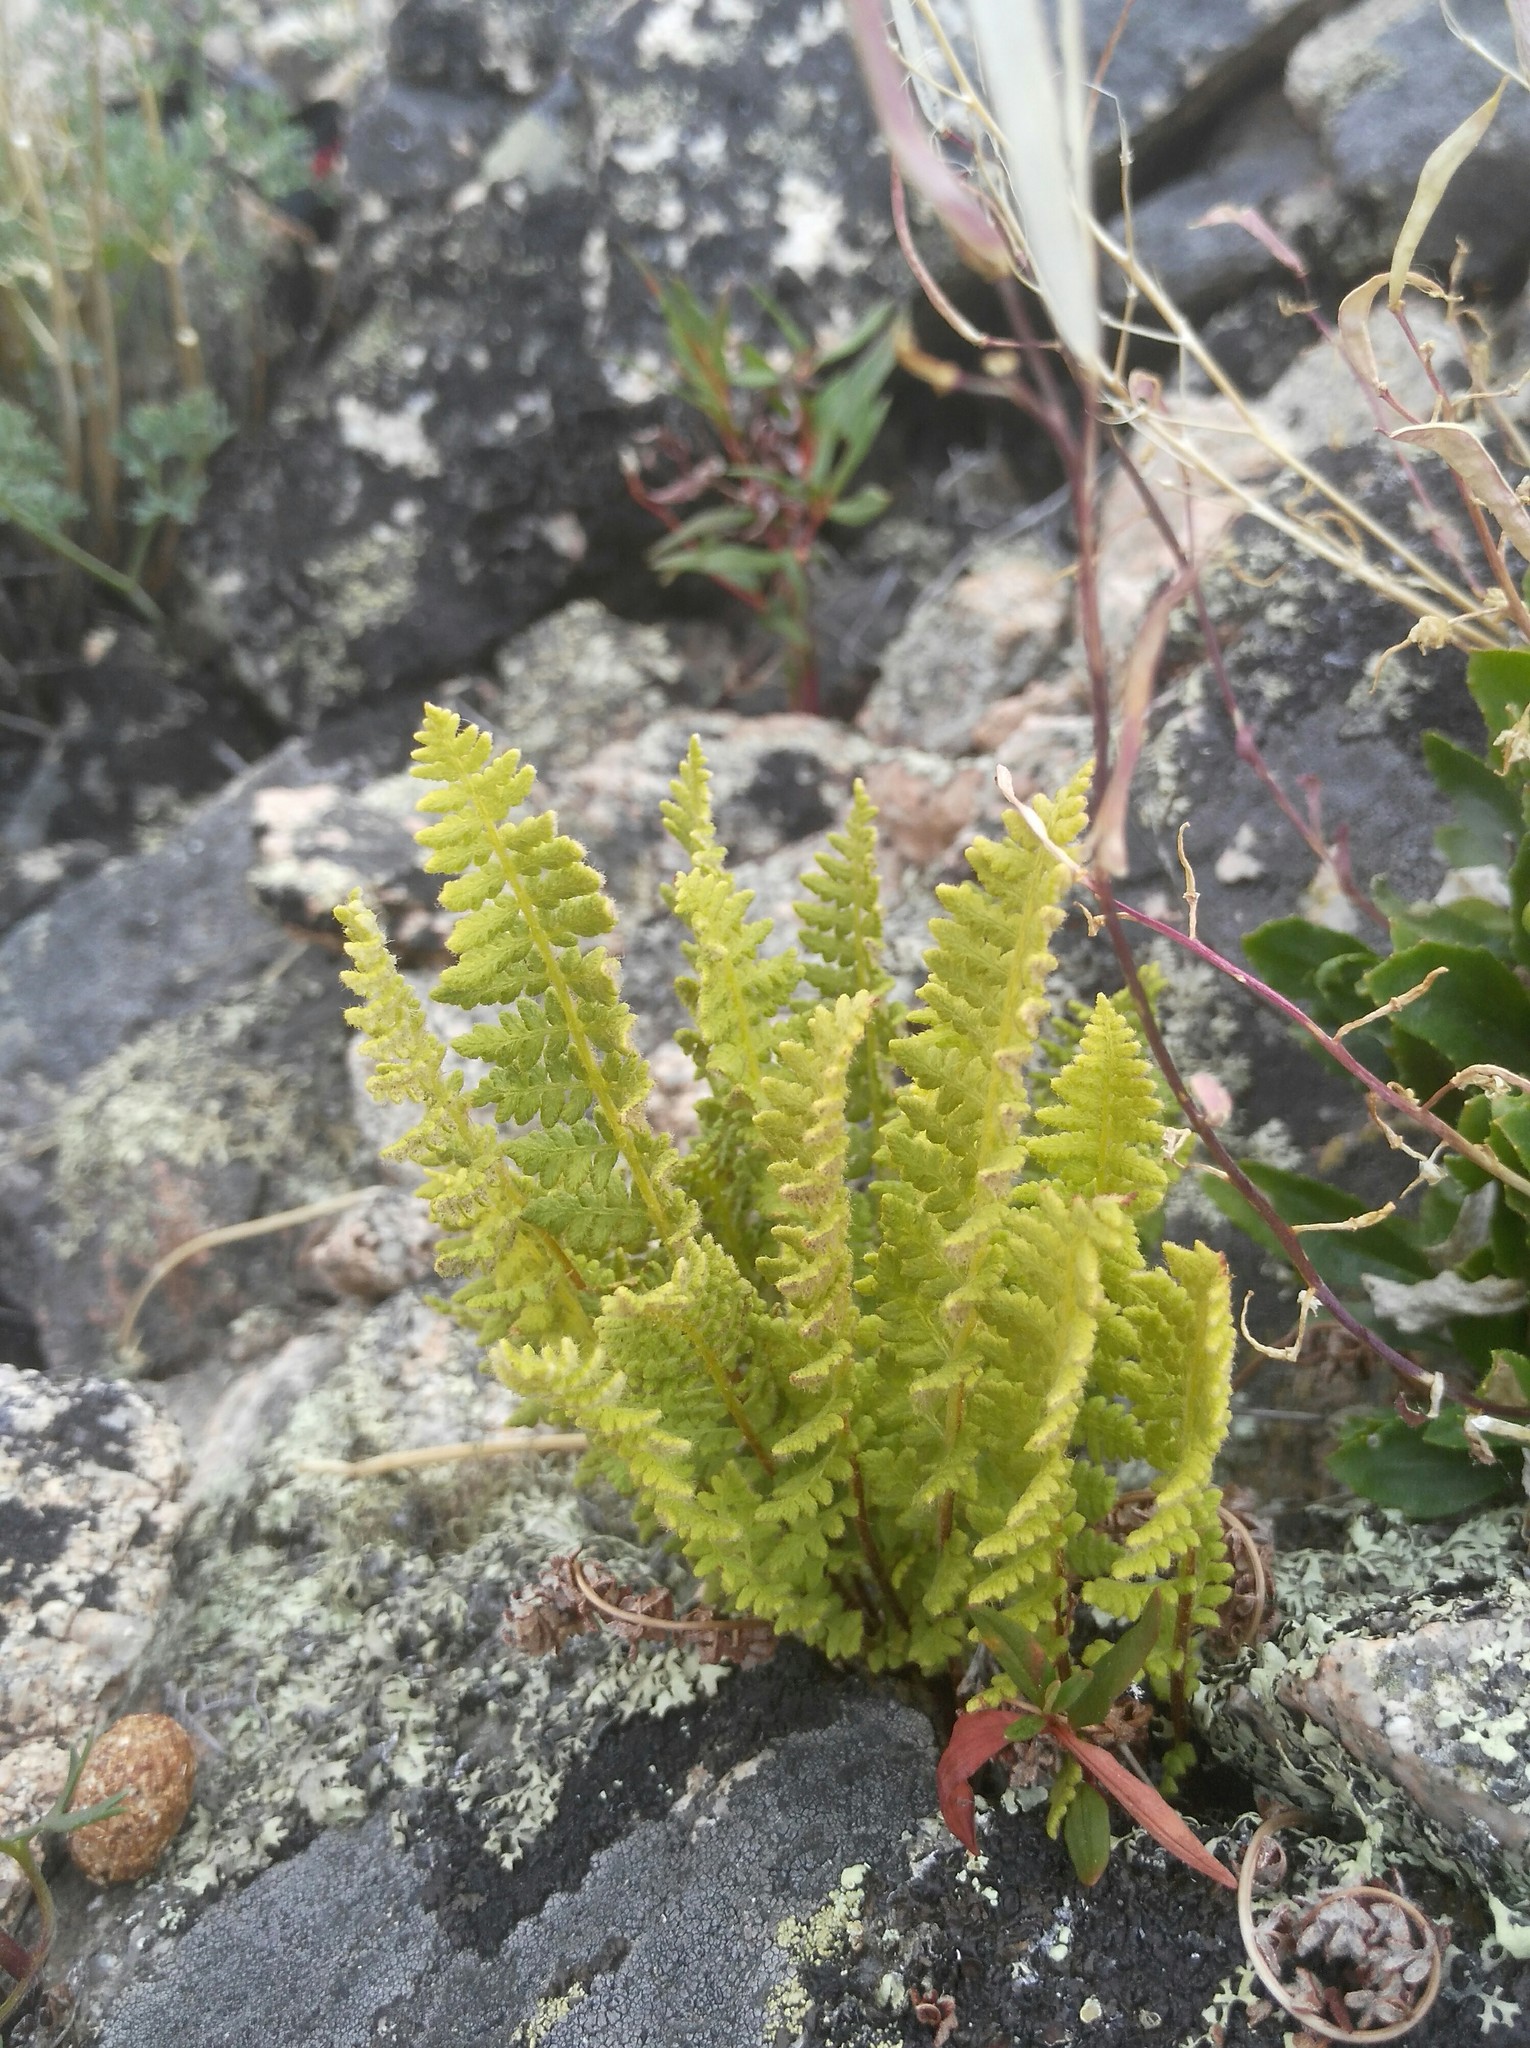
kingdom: Plantae
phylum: Tracheophyta
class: Polypodiopsida
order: Polypodiales
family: Dryopteridaceae
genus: Dryopteris
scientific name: Dryopteris fragrans
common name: Fragrant wood fern
